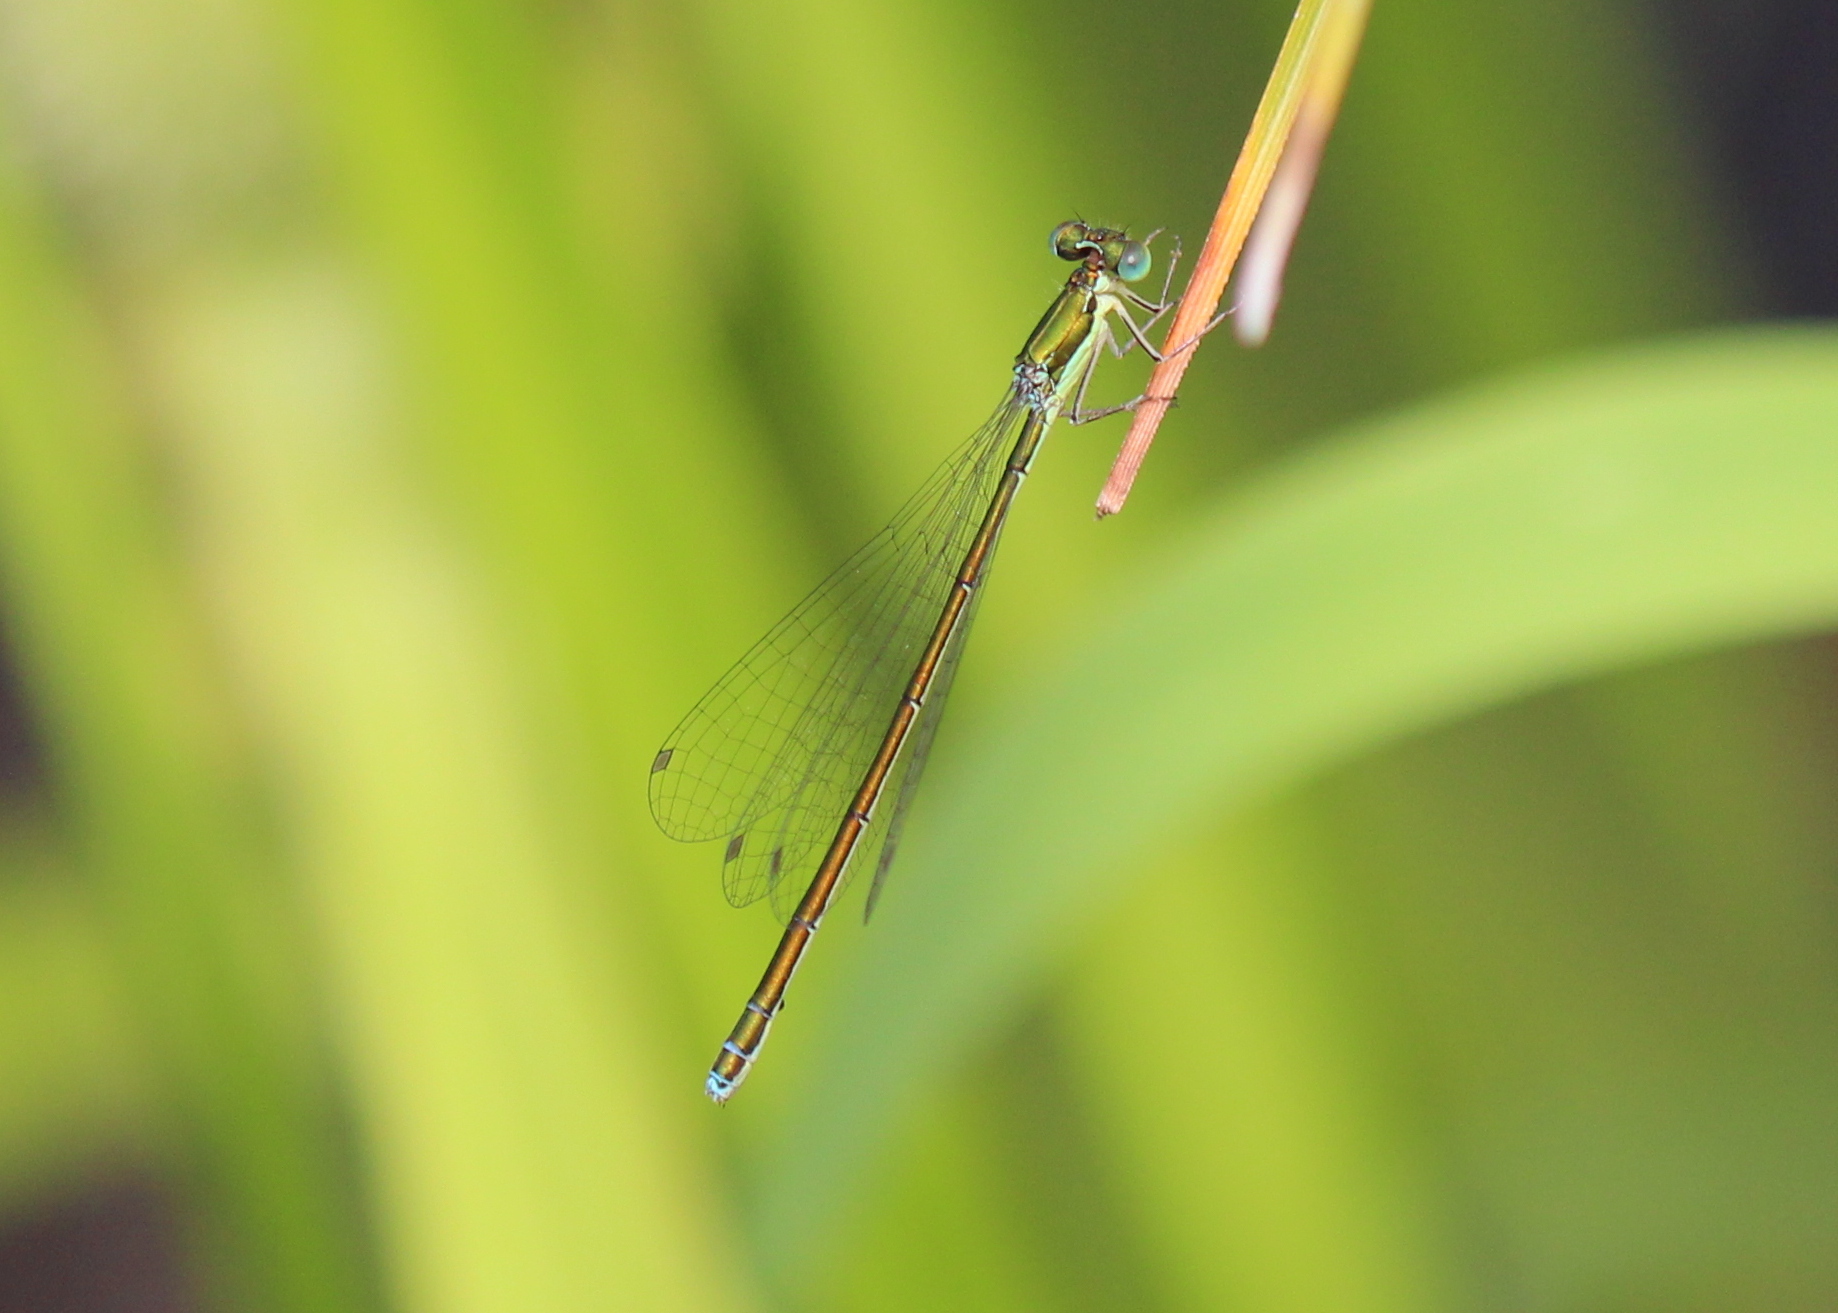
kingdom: Animalia
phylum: Arthropoda
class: Insecta
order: Odonata
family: Coenagrionidae
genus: Nehalennia
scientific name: Nehalennia irene
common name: Sedge sprite
